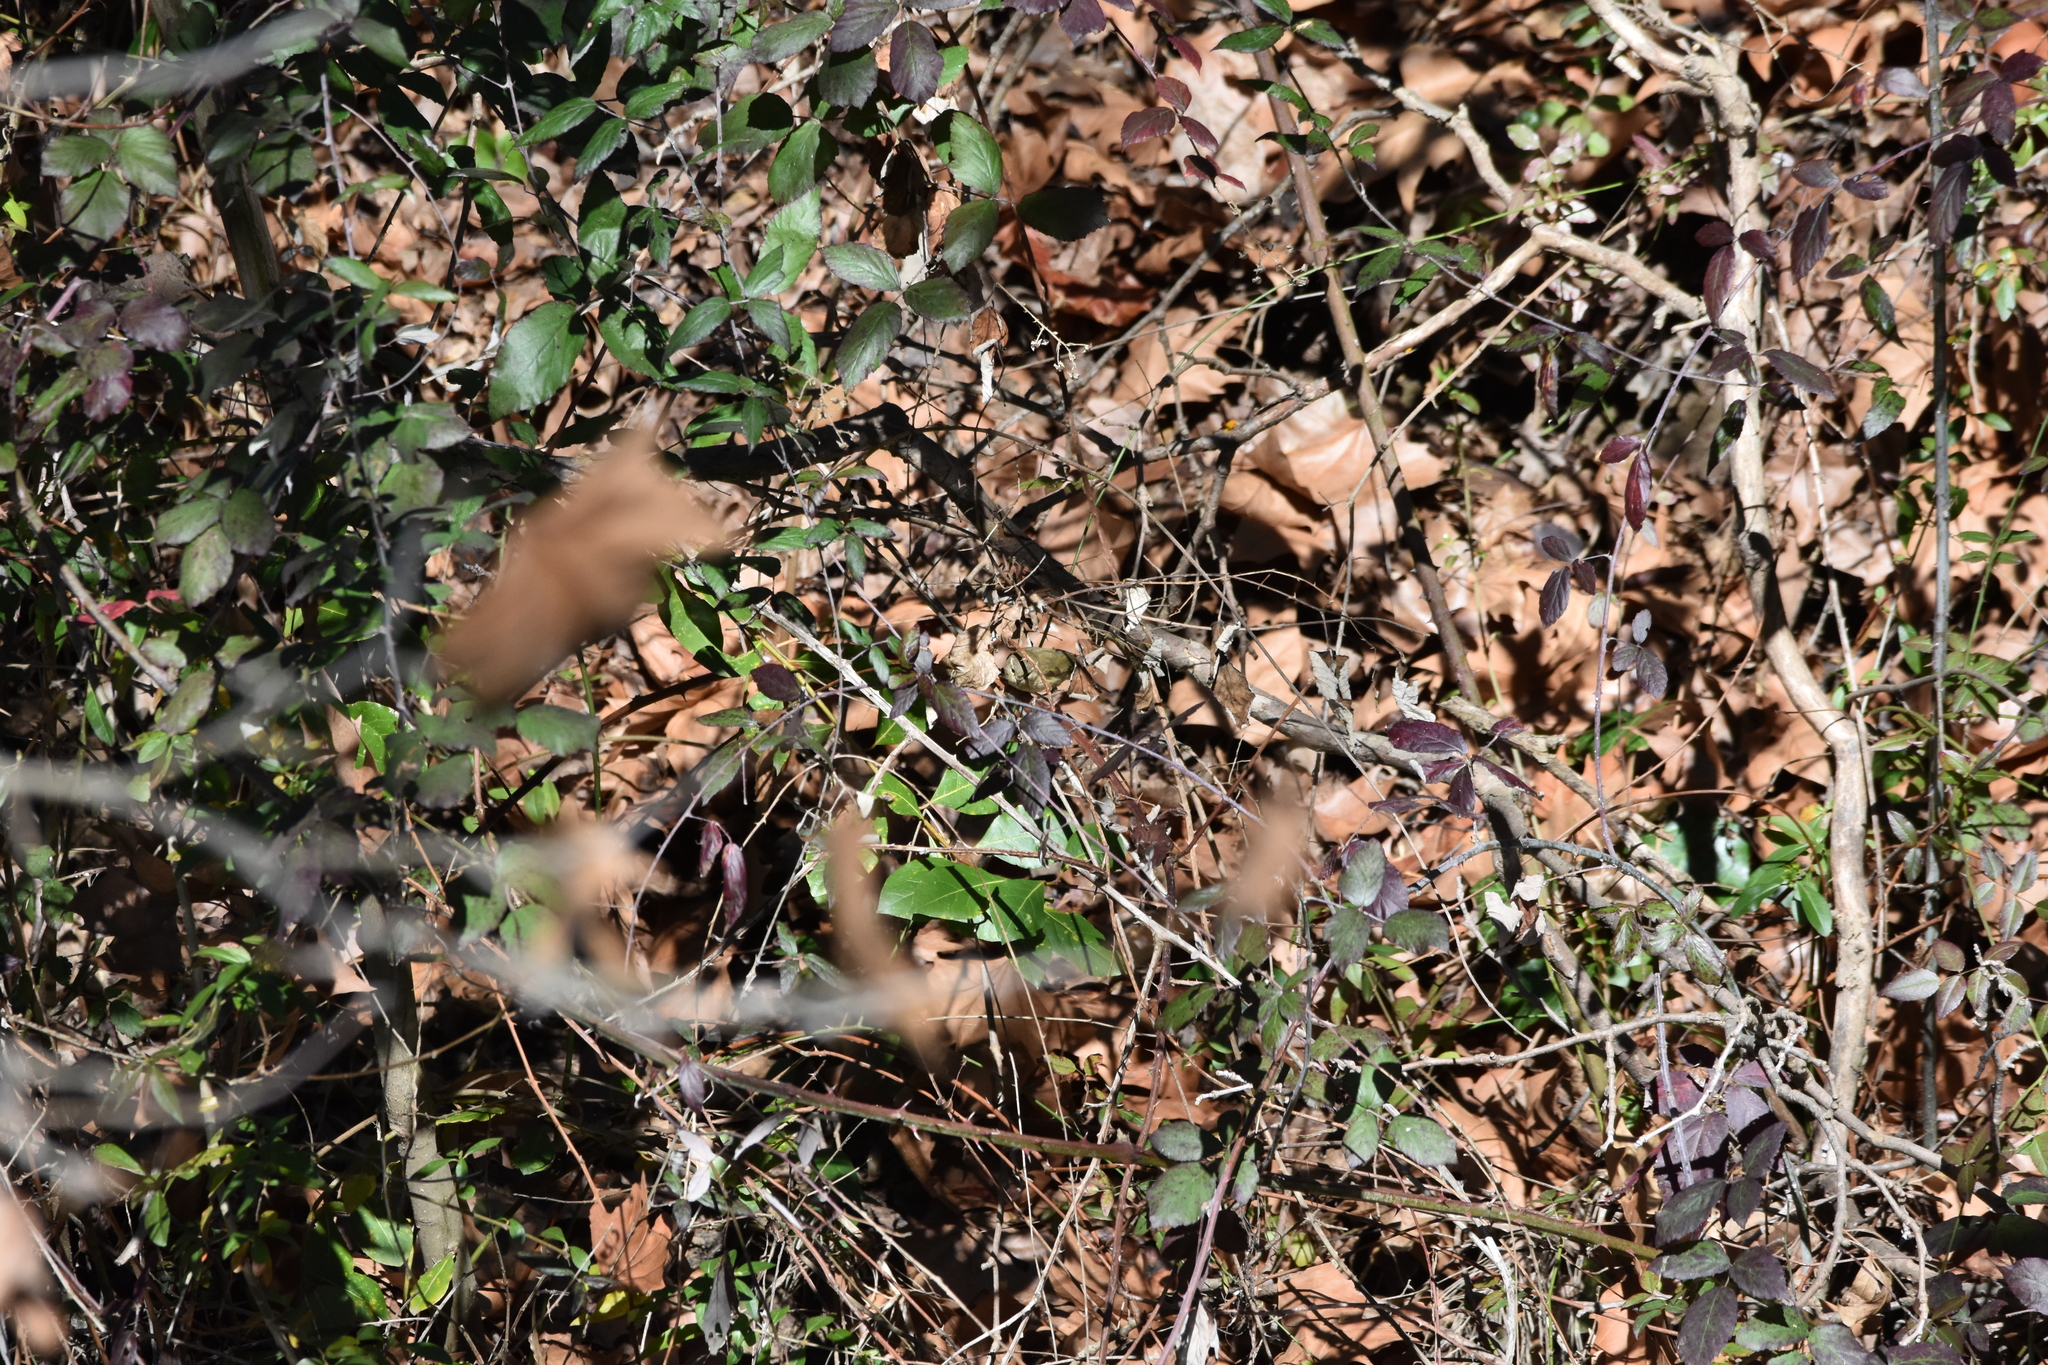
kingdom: Animalia
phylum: Chordata
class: Aves
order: Passeriformes
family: Phylloscopidae
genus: Phylloscopus
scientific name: Phylloscopus collybita
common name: Common chiffchaff
